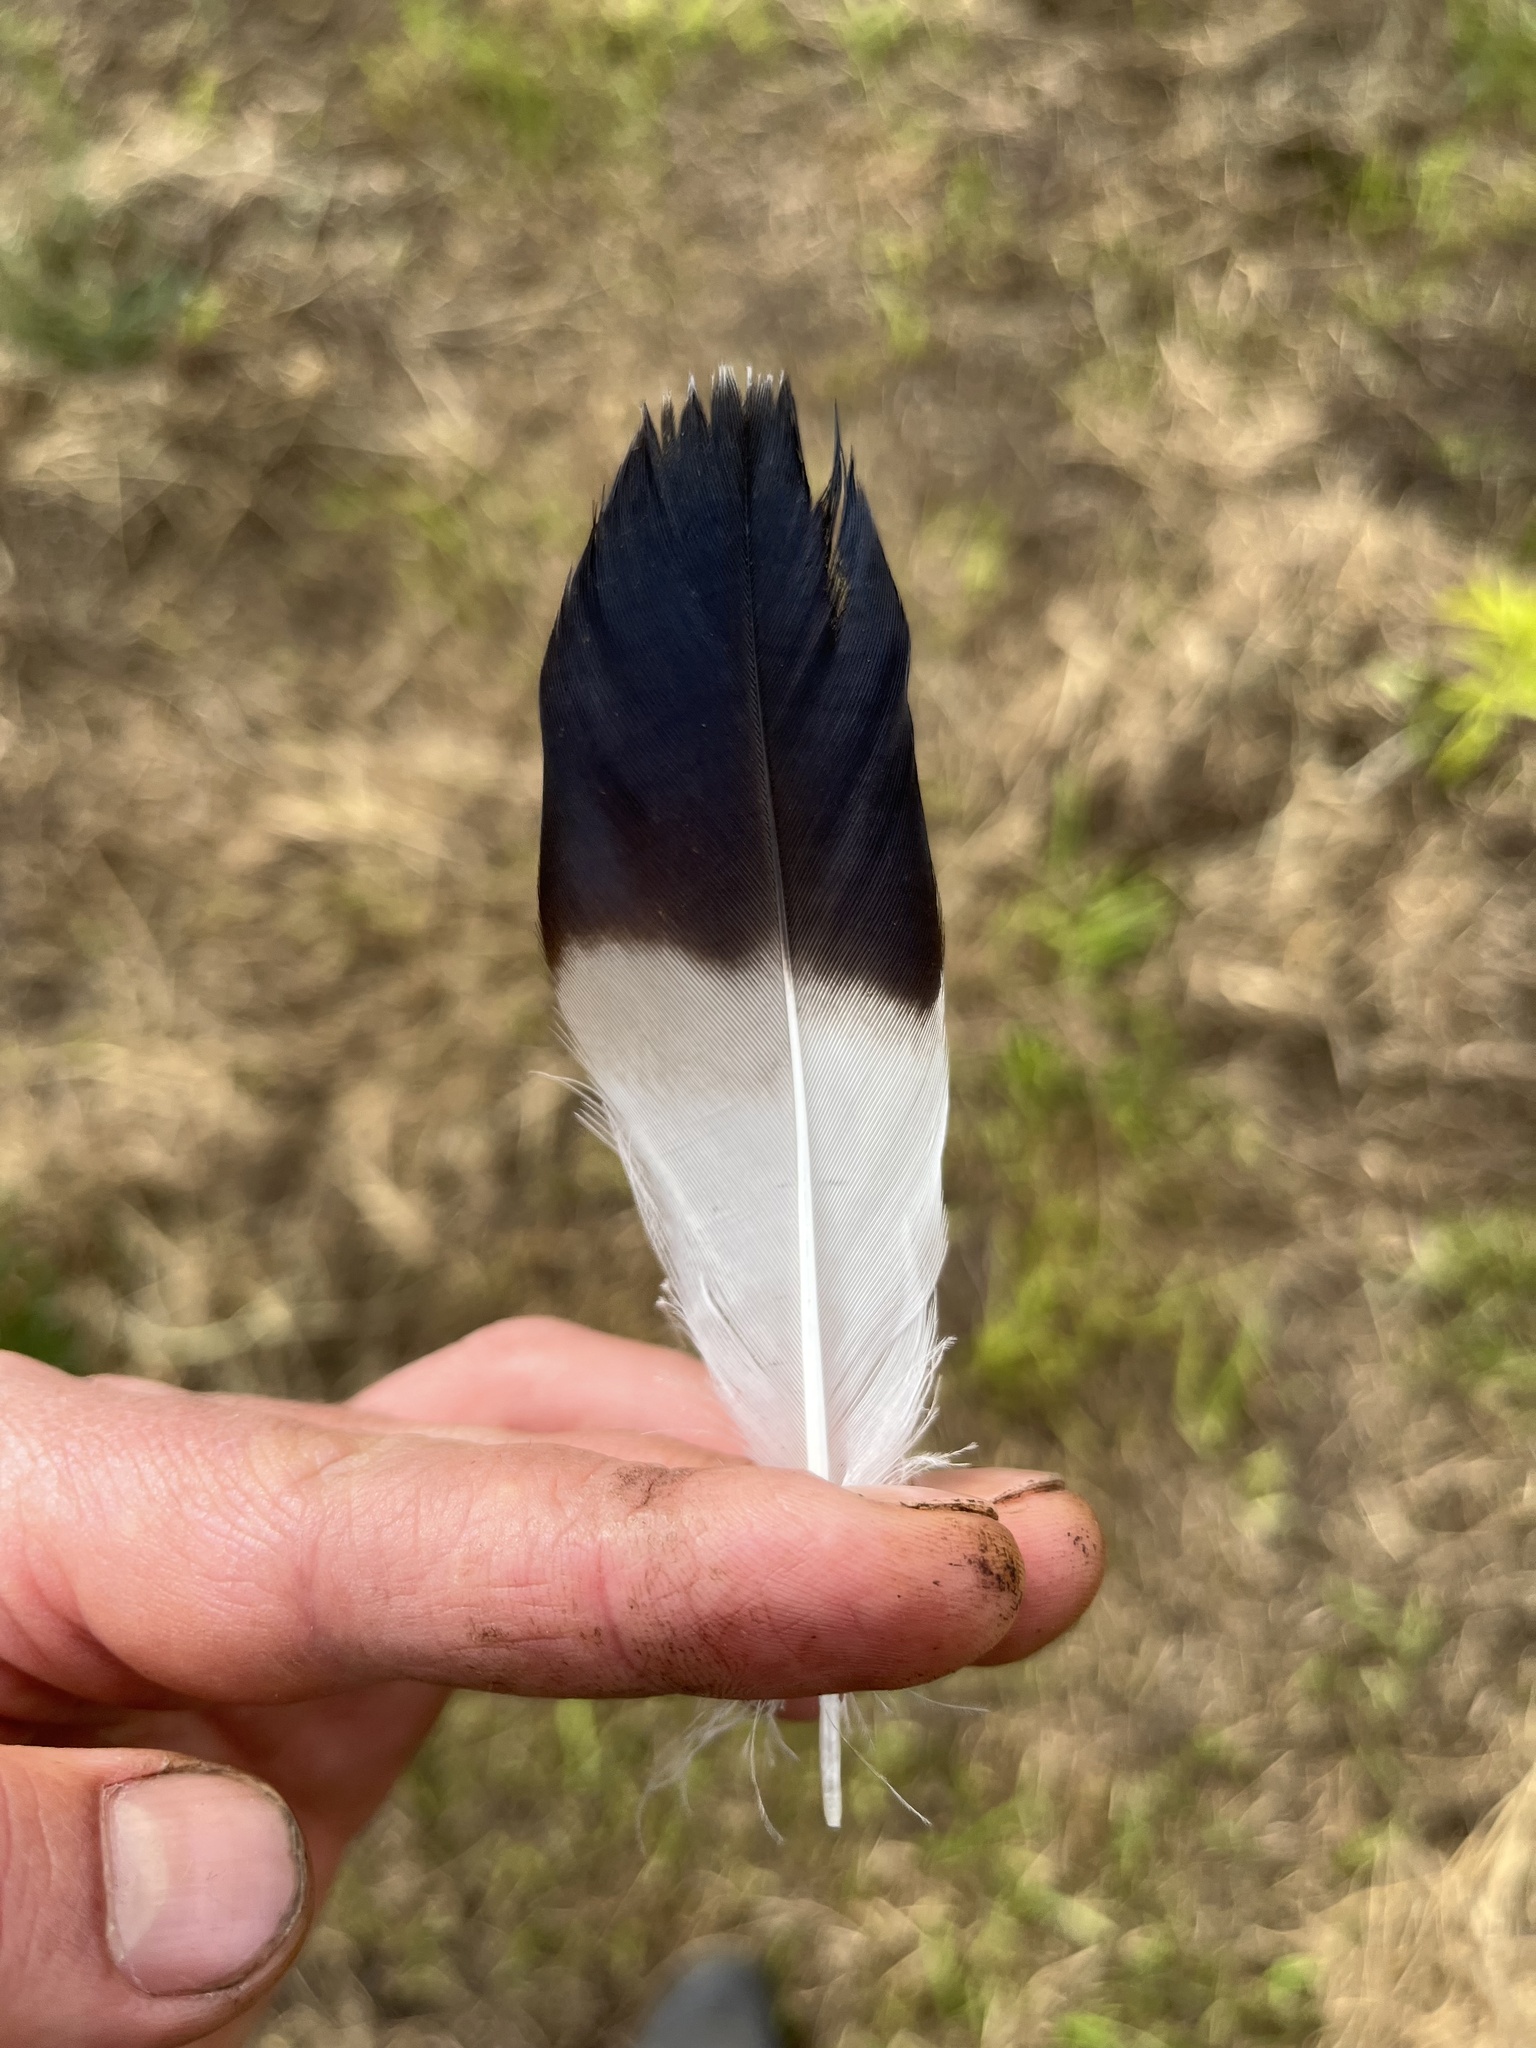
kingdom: Animalia
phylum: Chordata
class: Aves
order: Charadriiformes
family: Charadriidae
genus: Vanellus
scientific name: Vanellus chilensis
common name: Southern lapwing
